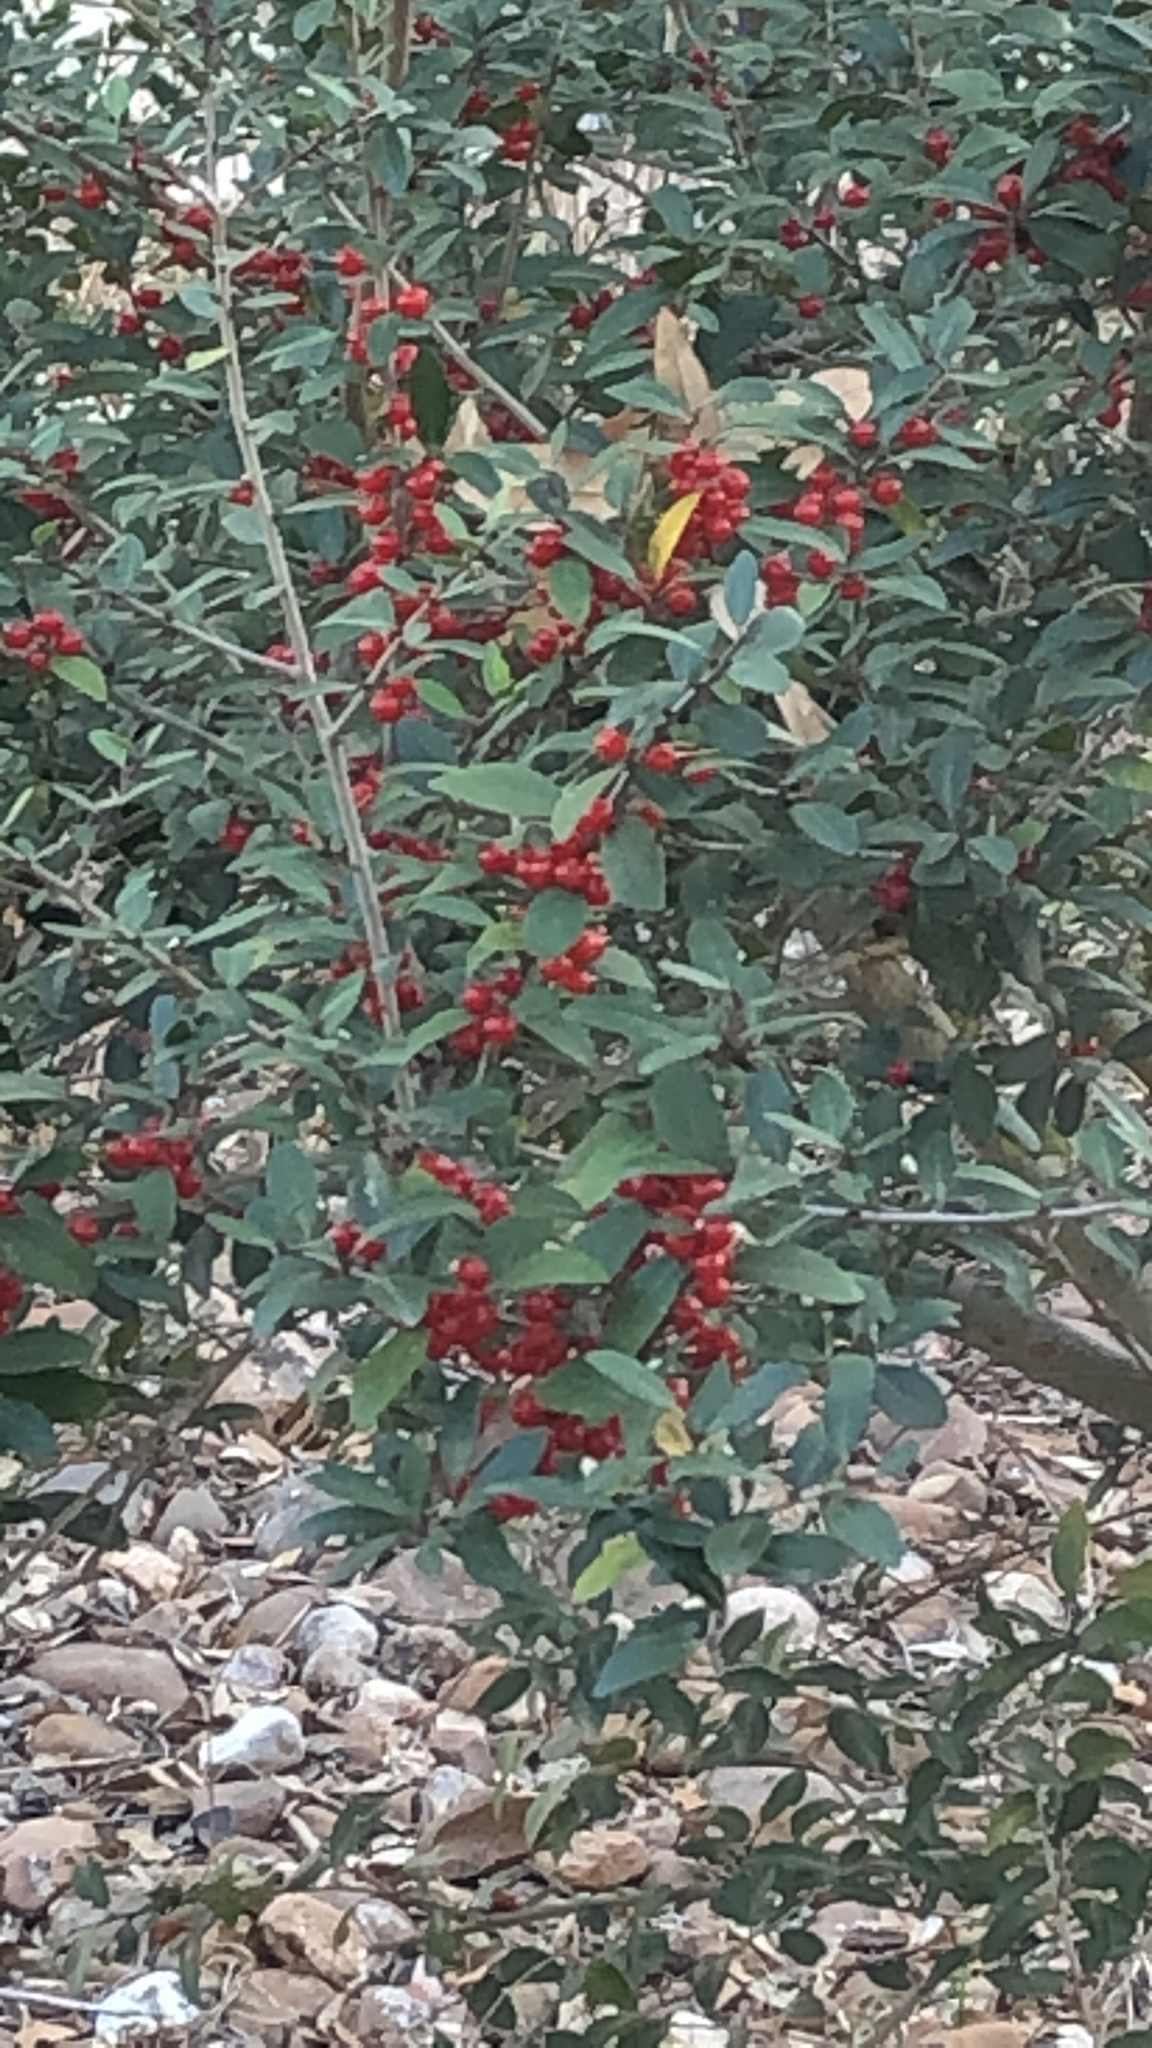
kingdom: Plantae
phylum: Tracheophyta
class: Magnoliopsida
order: Aquifoliales
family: Aquifoliaceae
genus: Ilex
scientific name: Ilex vomitoria
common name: Yaupon holly
